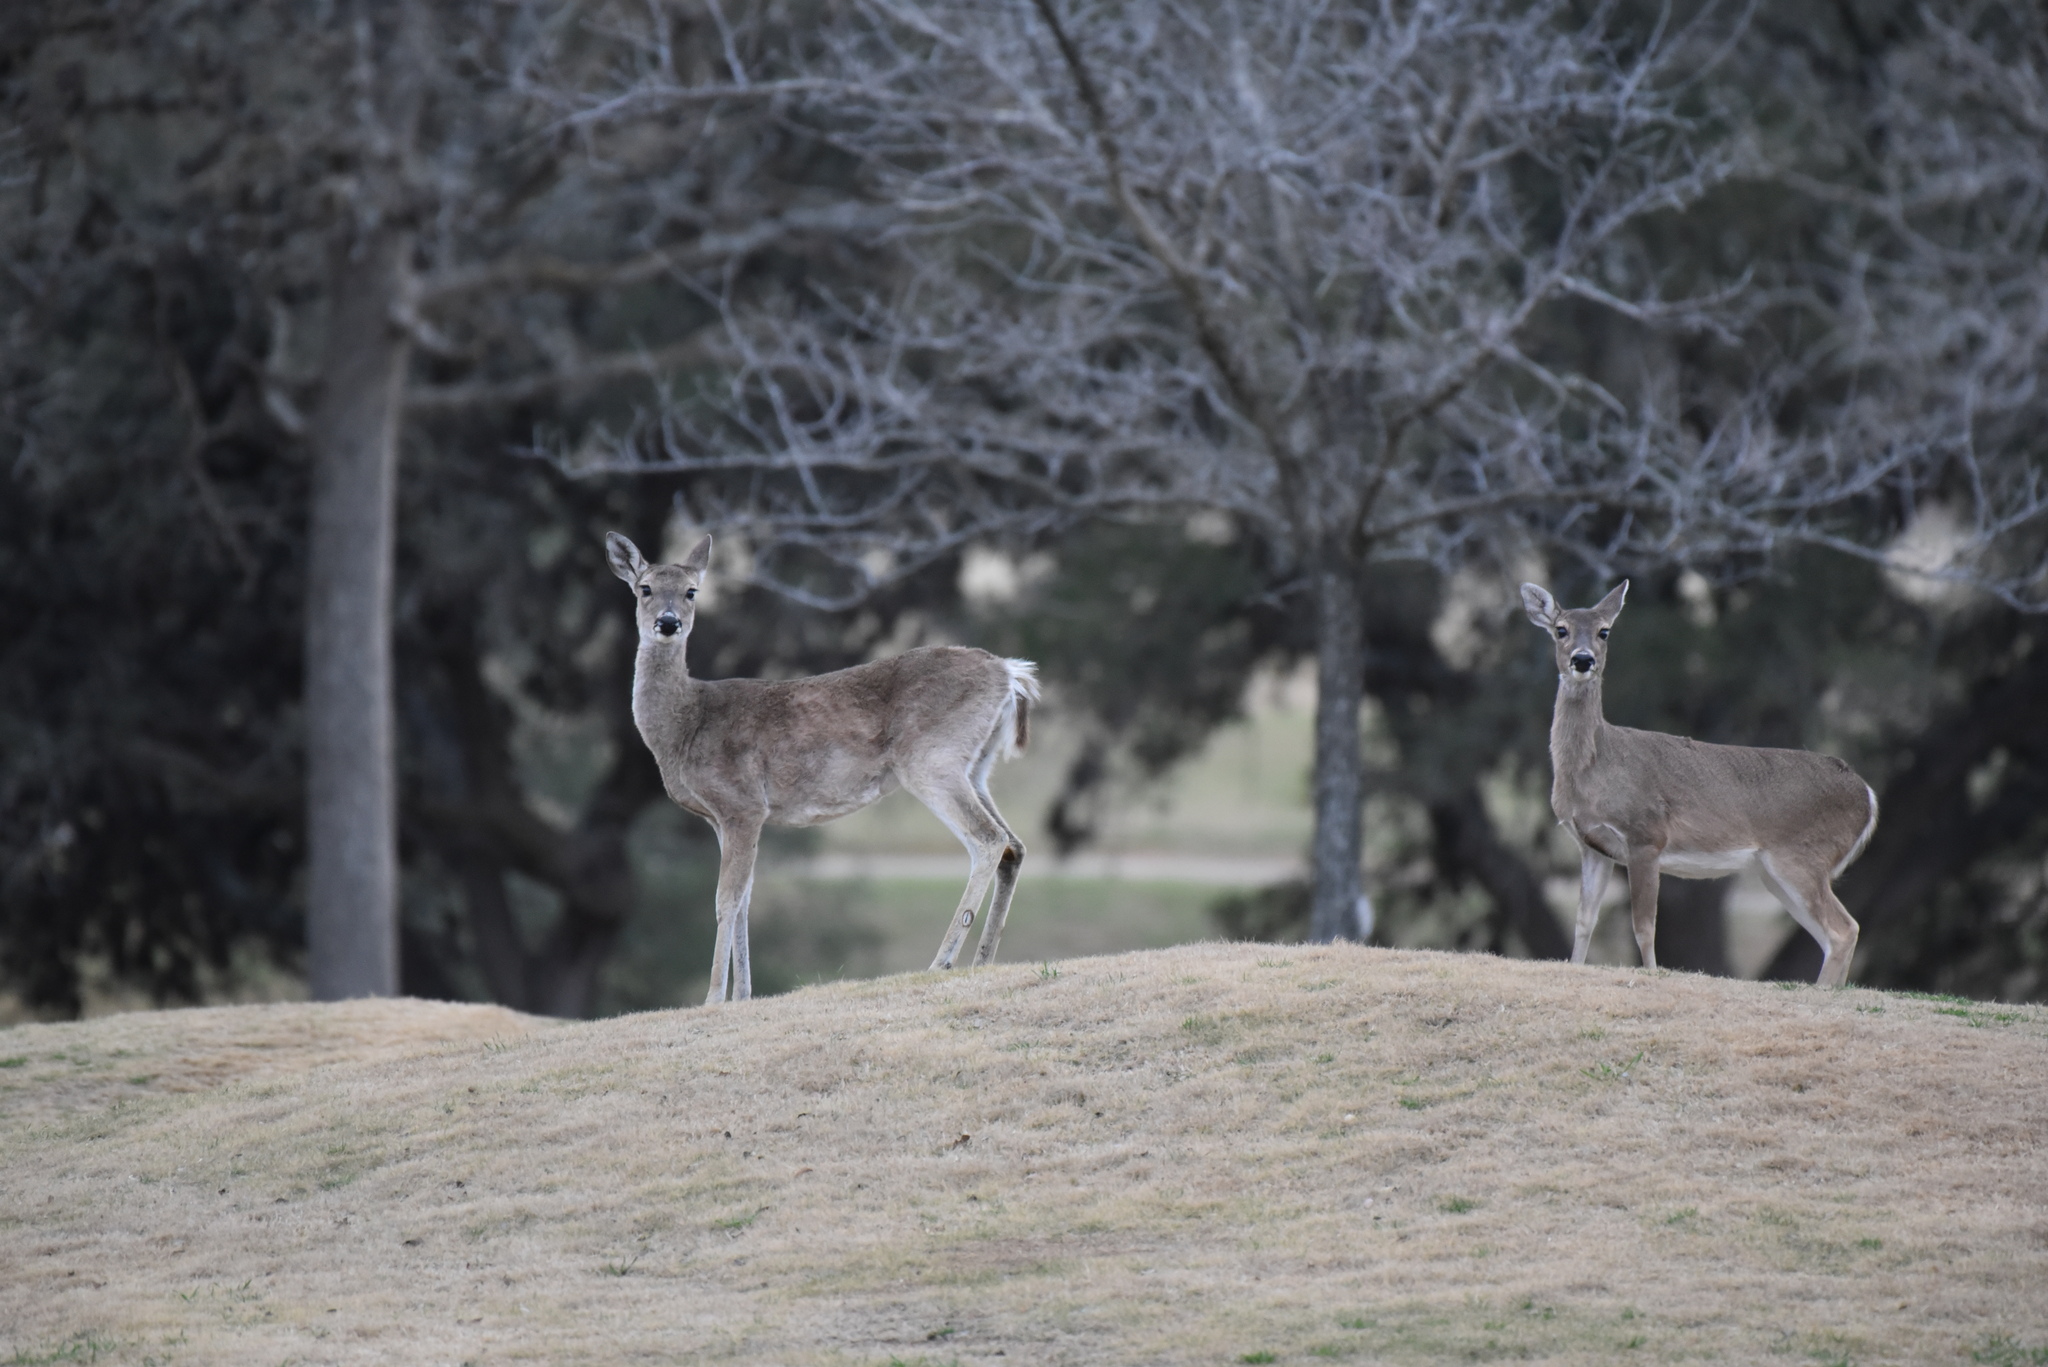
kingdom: Animalia
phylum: Chordata
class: Mammalia
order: Artiodactyla
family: Cervidae
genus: Odocoileus
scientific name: Odocoileus virginianus
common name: White-tailed deer
